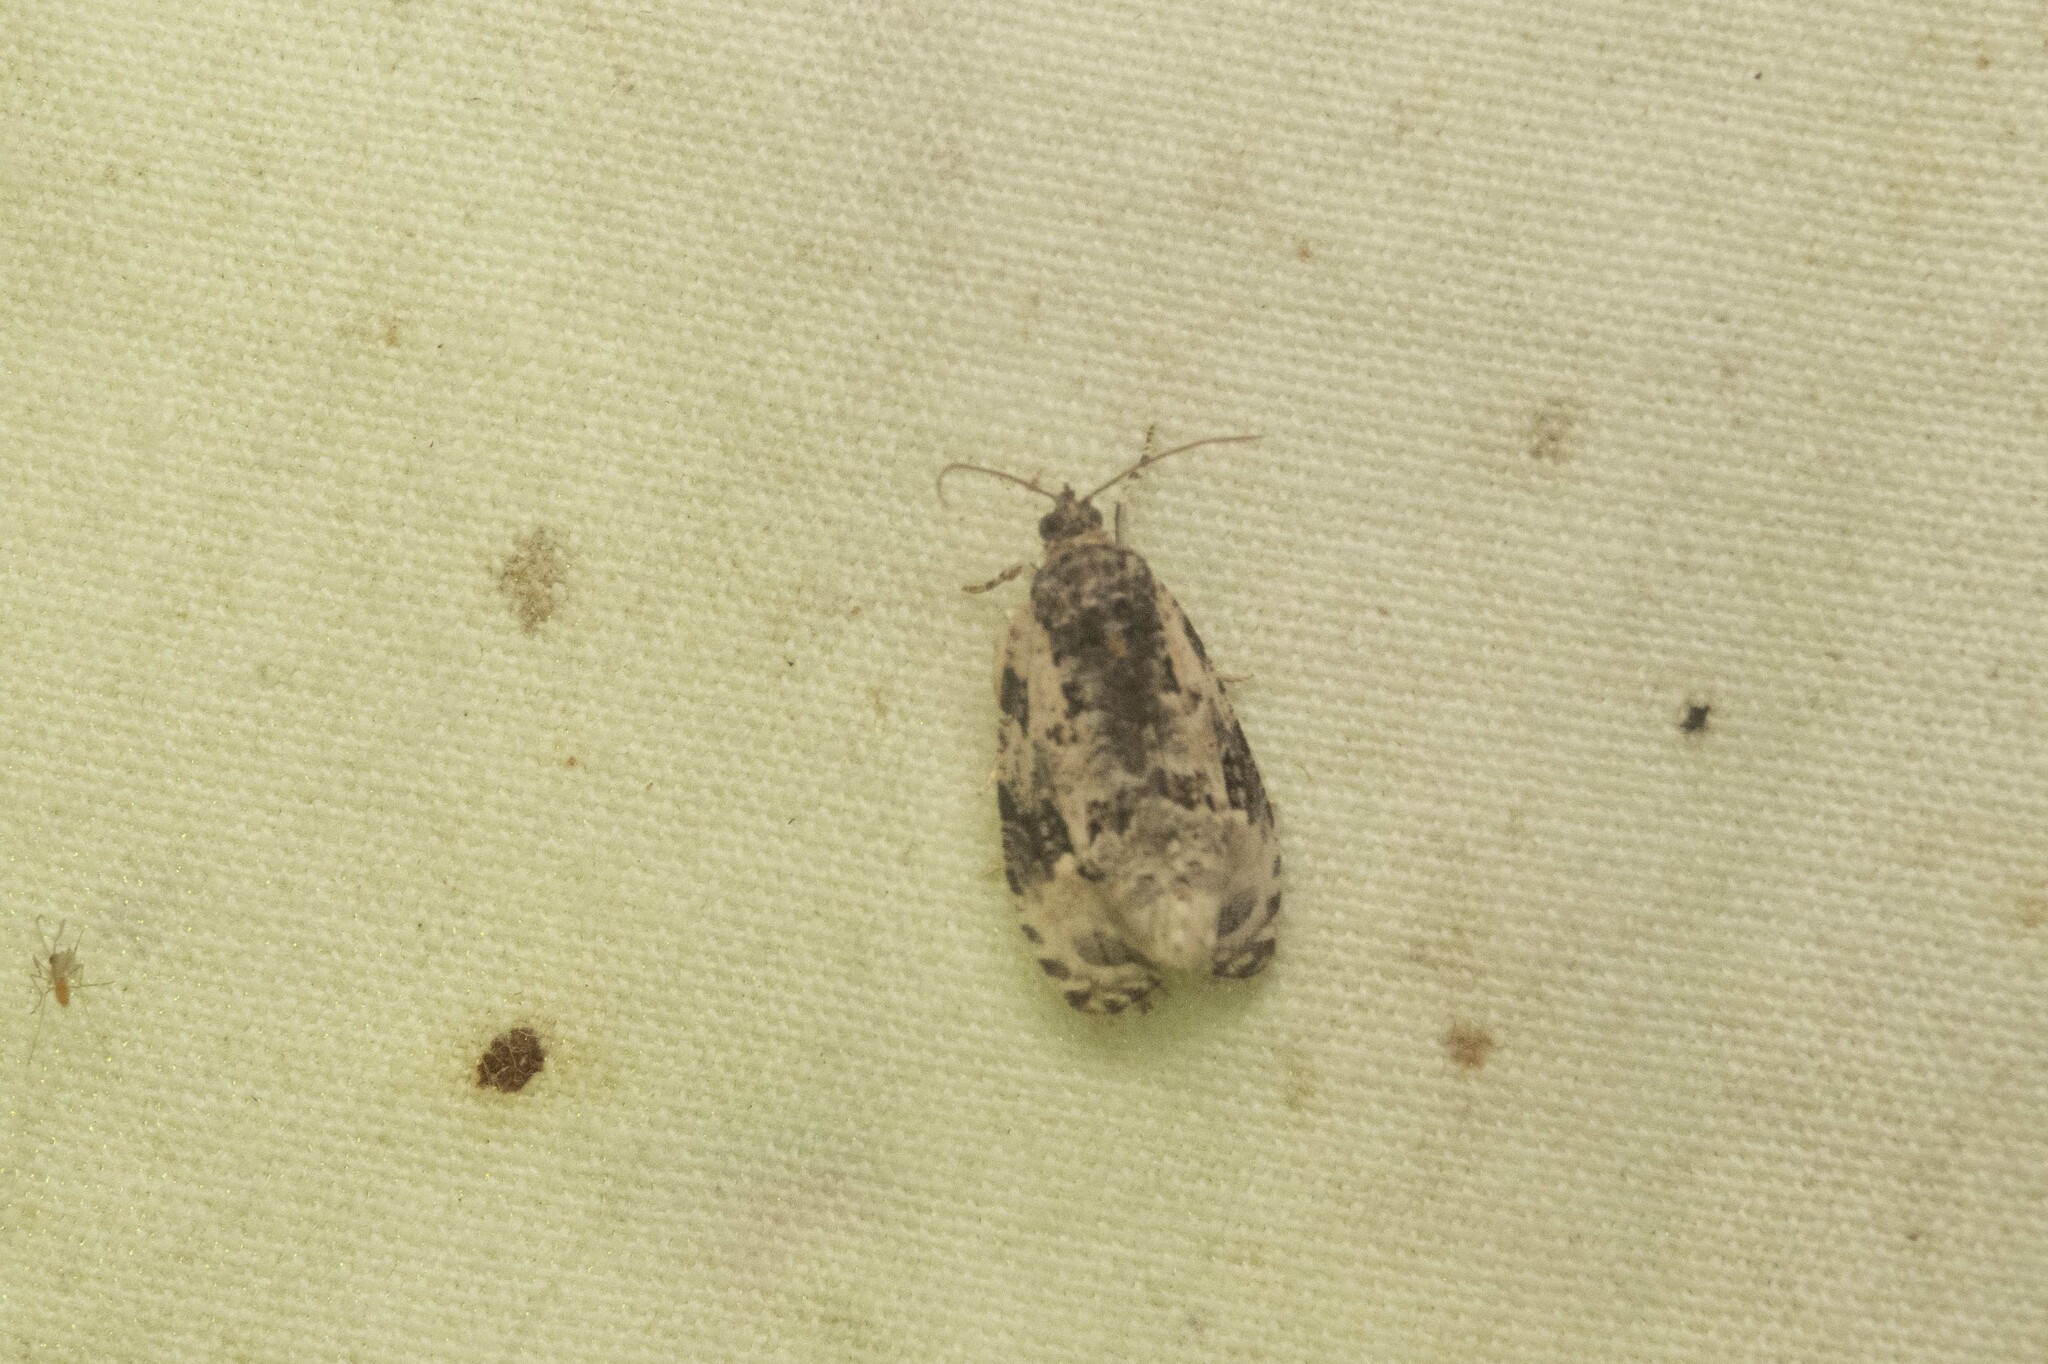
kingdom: Animalia
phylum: Arthropoda
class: Insecta
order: Lepidoptera
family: Tortricidae
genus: Apotomis
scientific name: Apotomis albeolana
